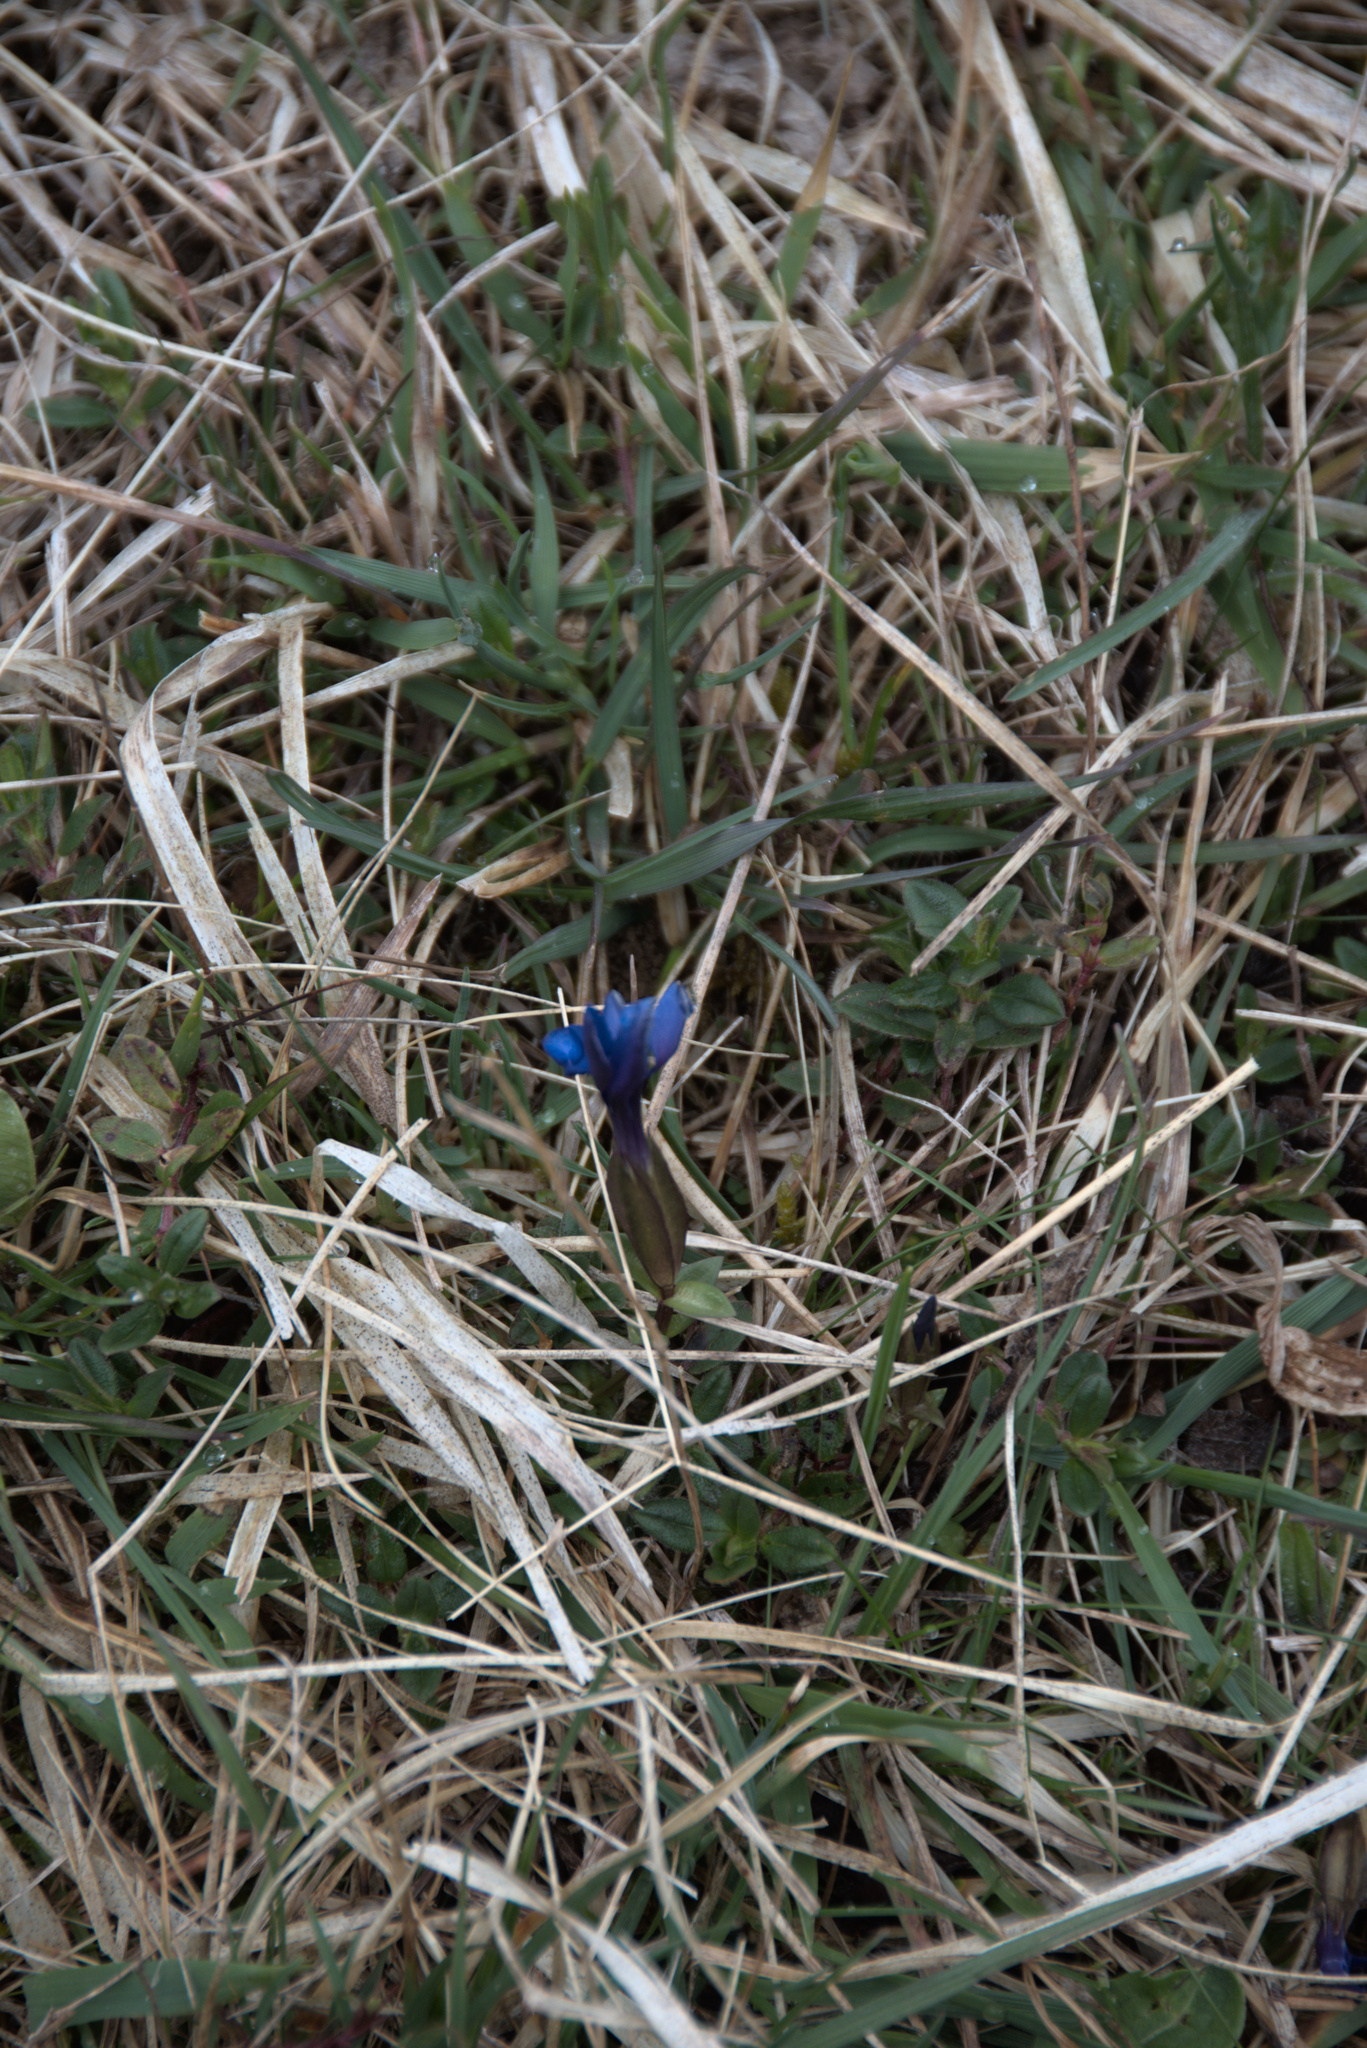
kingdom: Plantae
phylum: Tracheophyta
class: Magnoliopsida
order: Gentianales
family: Gentianaceae
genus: Gentiana
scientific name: Gentiana verna
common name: Spring gentian
